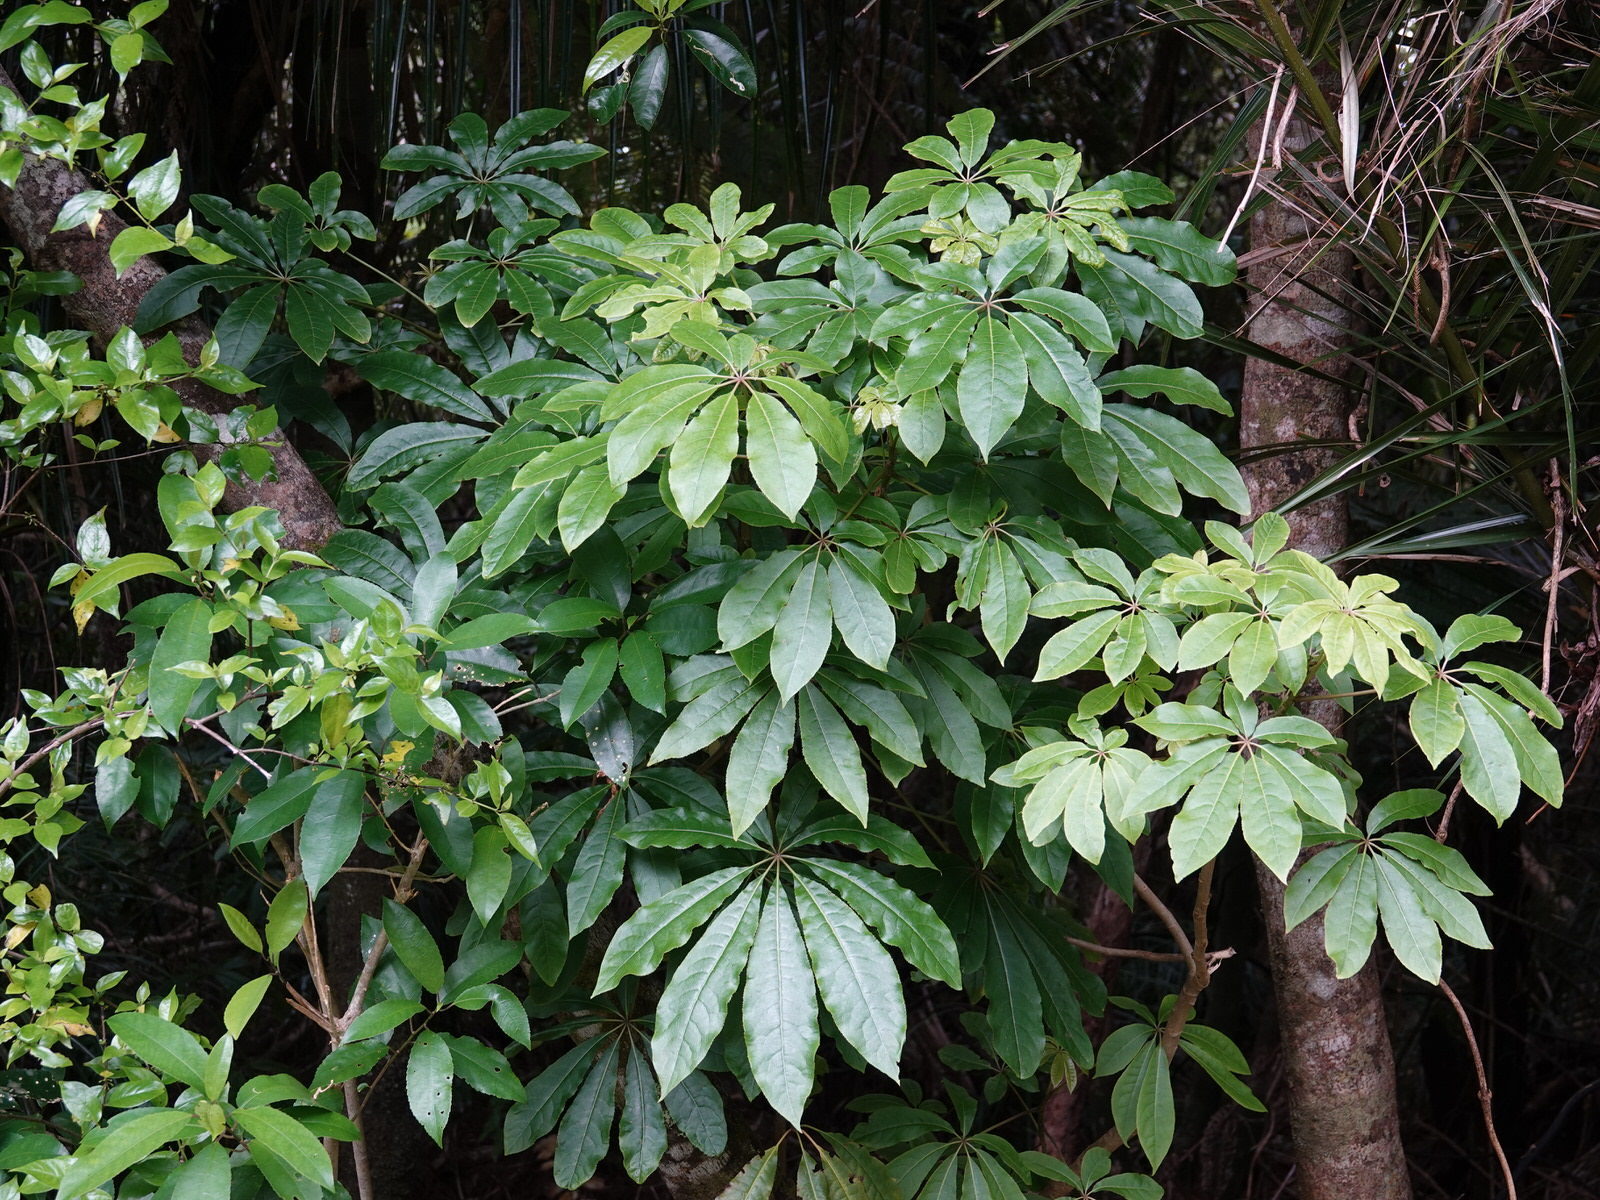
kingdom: Plantae
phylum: Tracheophyta
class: Magnoliopsida
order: Apiales
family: Araliaceae
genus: Schefflera
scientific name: Schefflera digitata
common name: Pate
